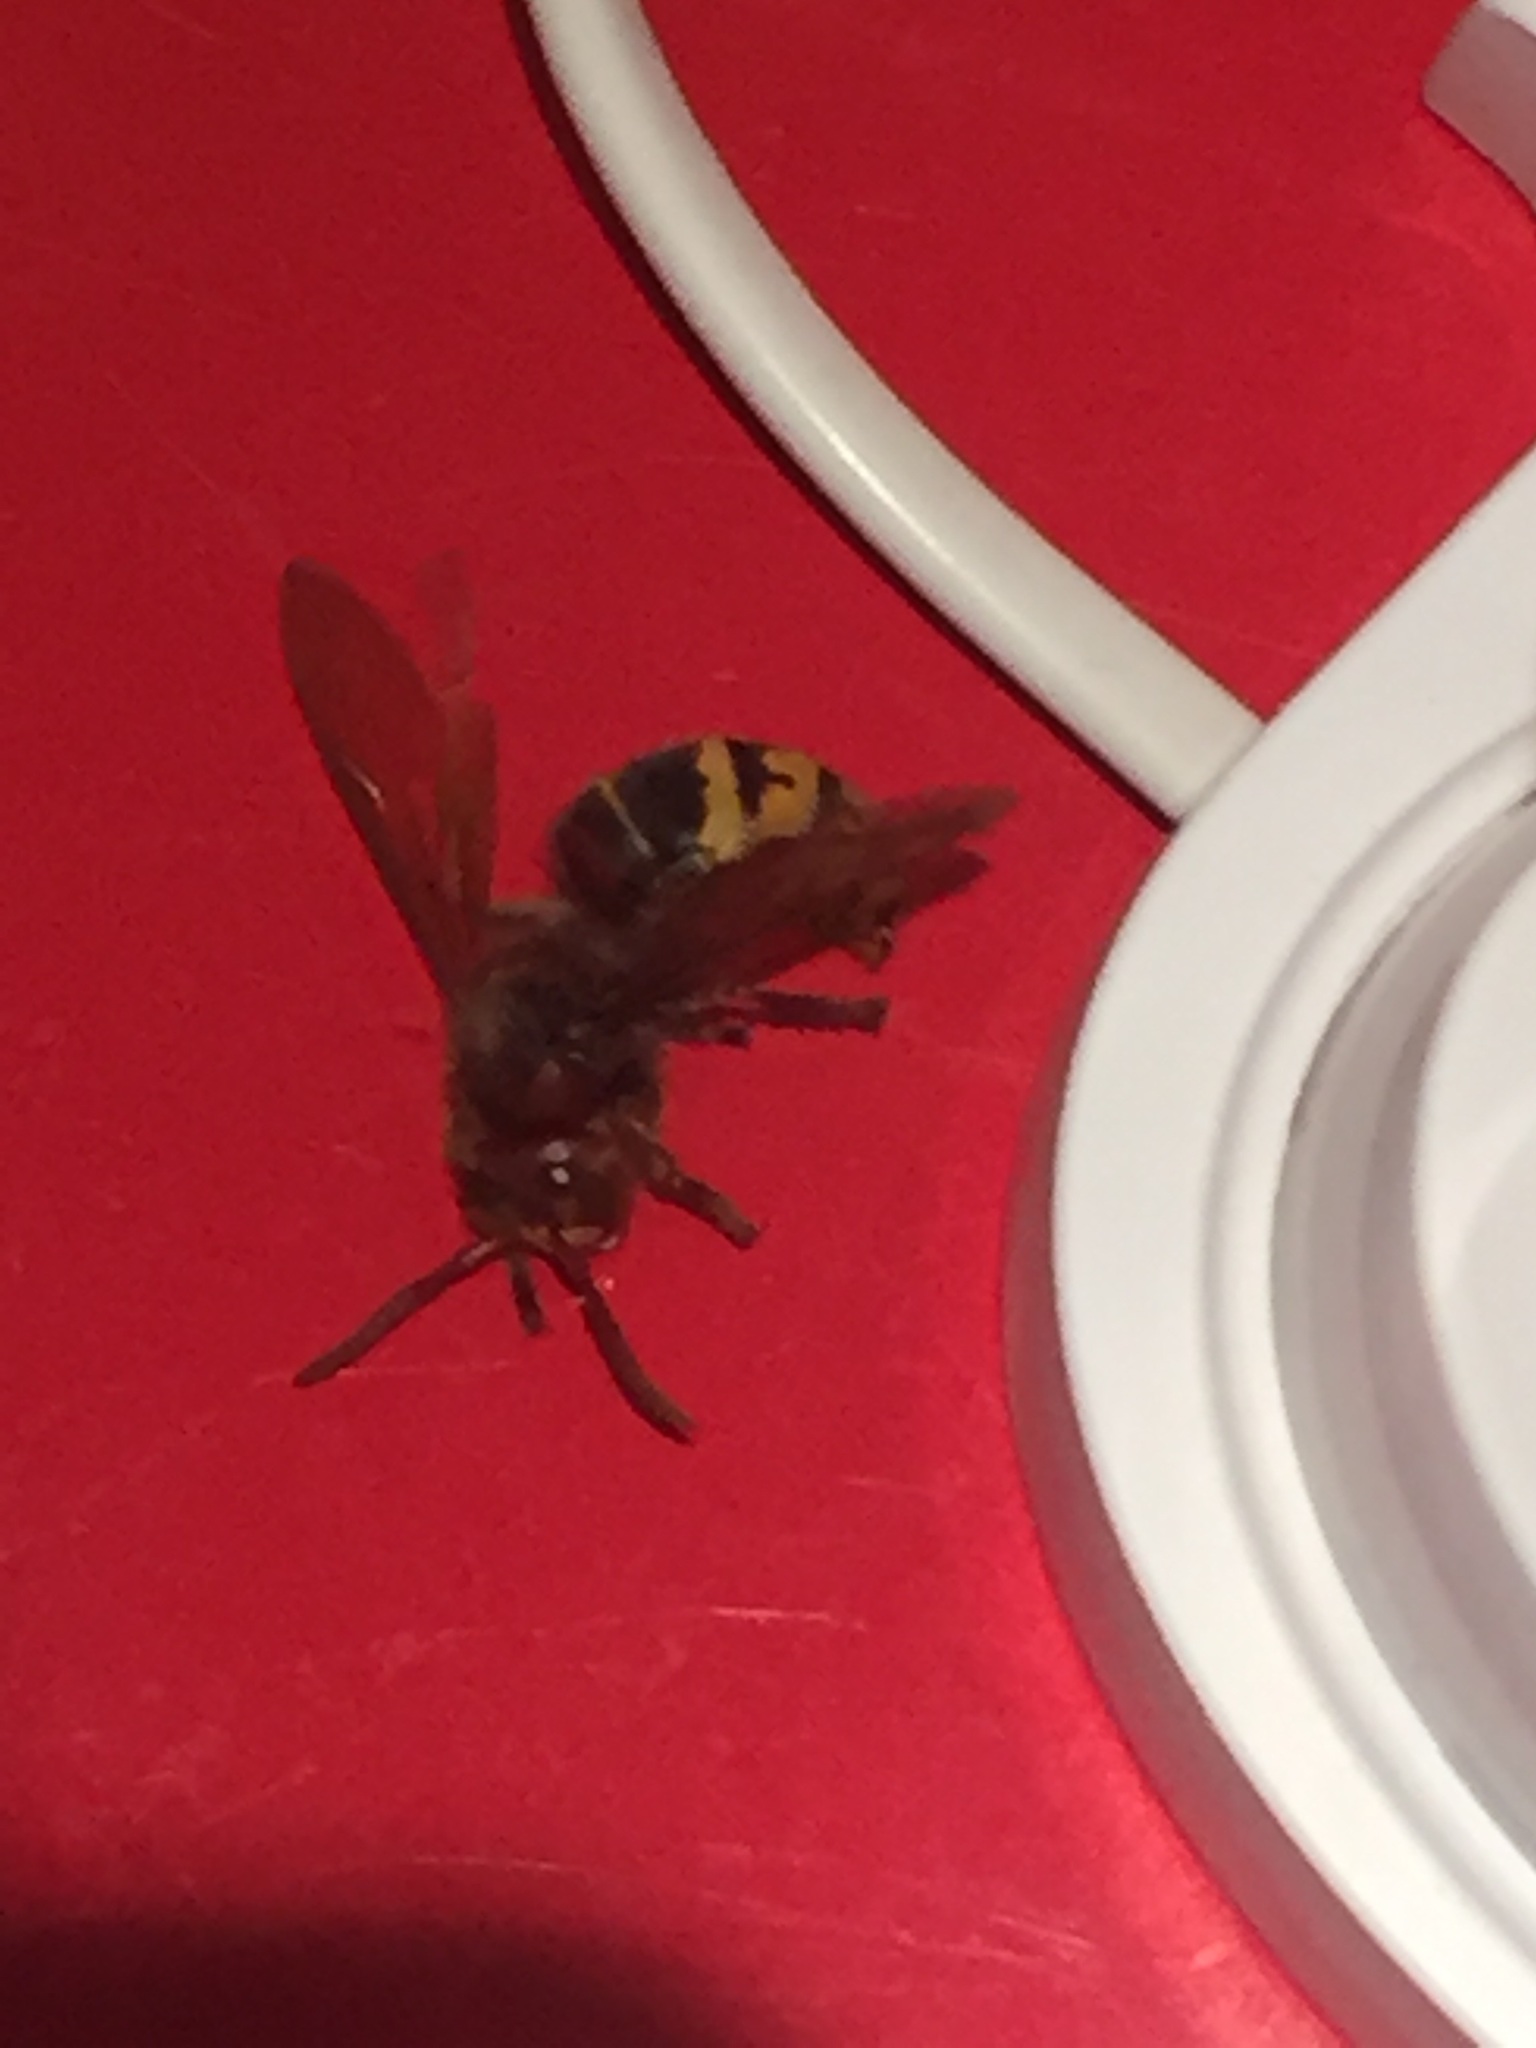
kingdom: Animalia
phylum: Arthropoda
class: Insecta
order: Hymenoptera
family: Vespidae
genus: Vespa
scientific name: Vespa crabro
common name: Hornet
